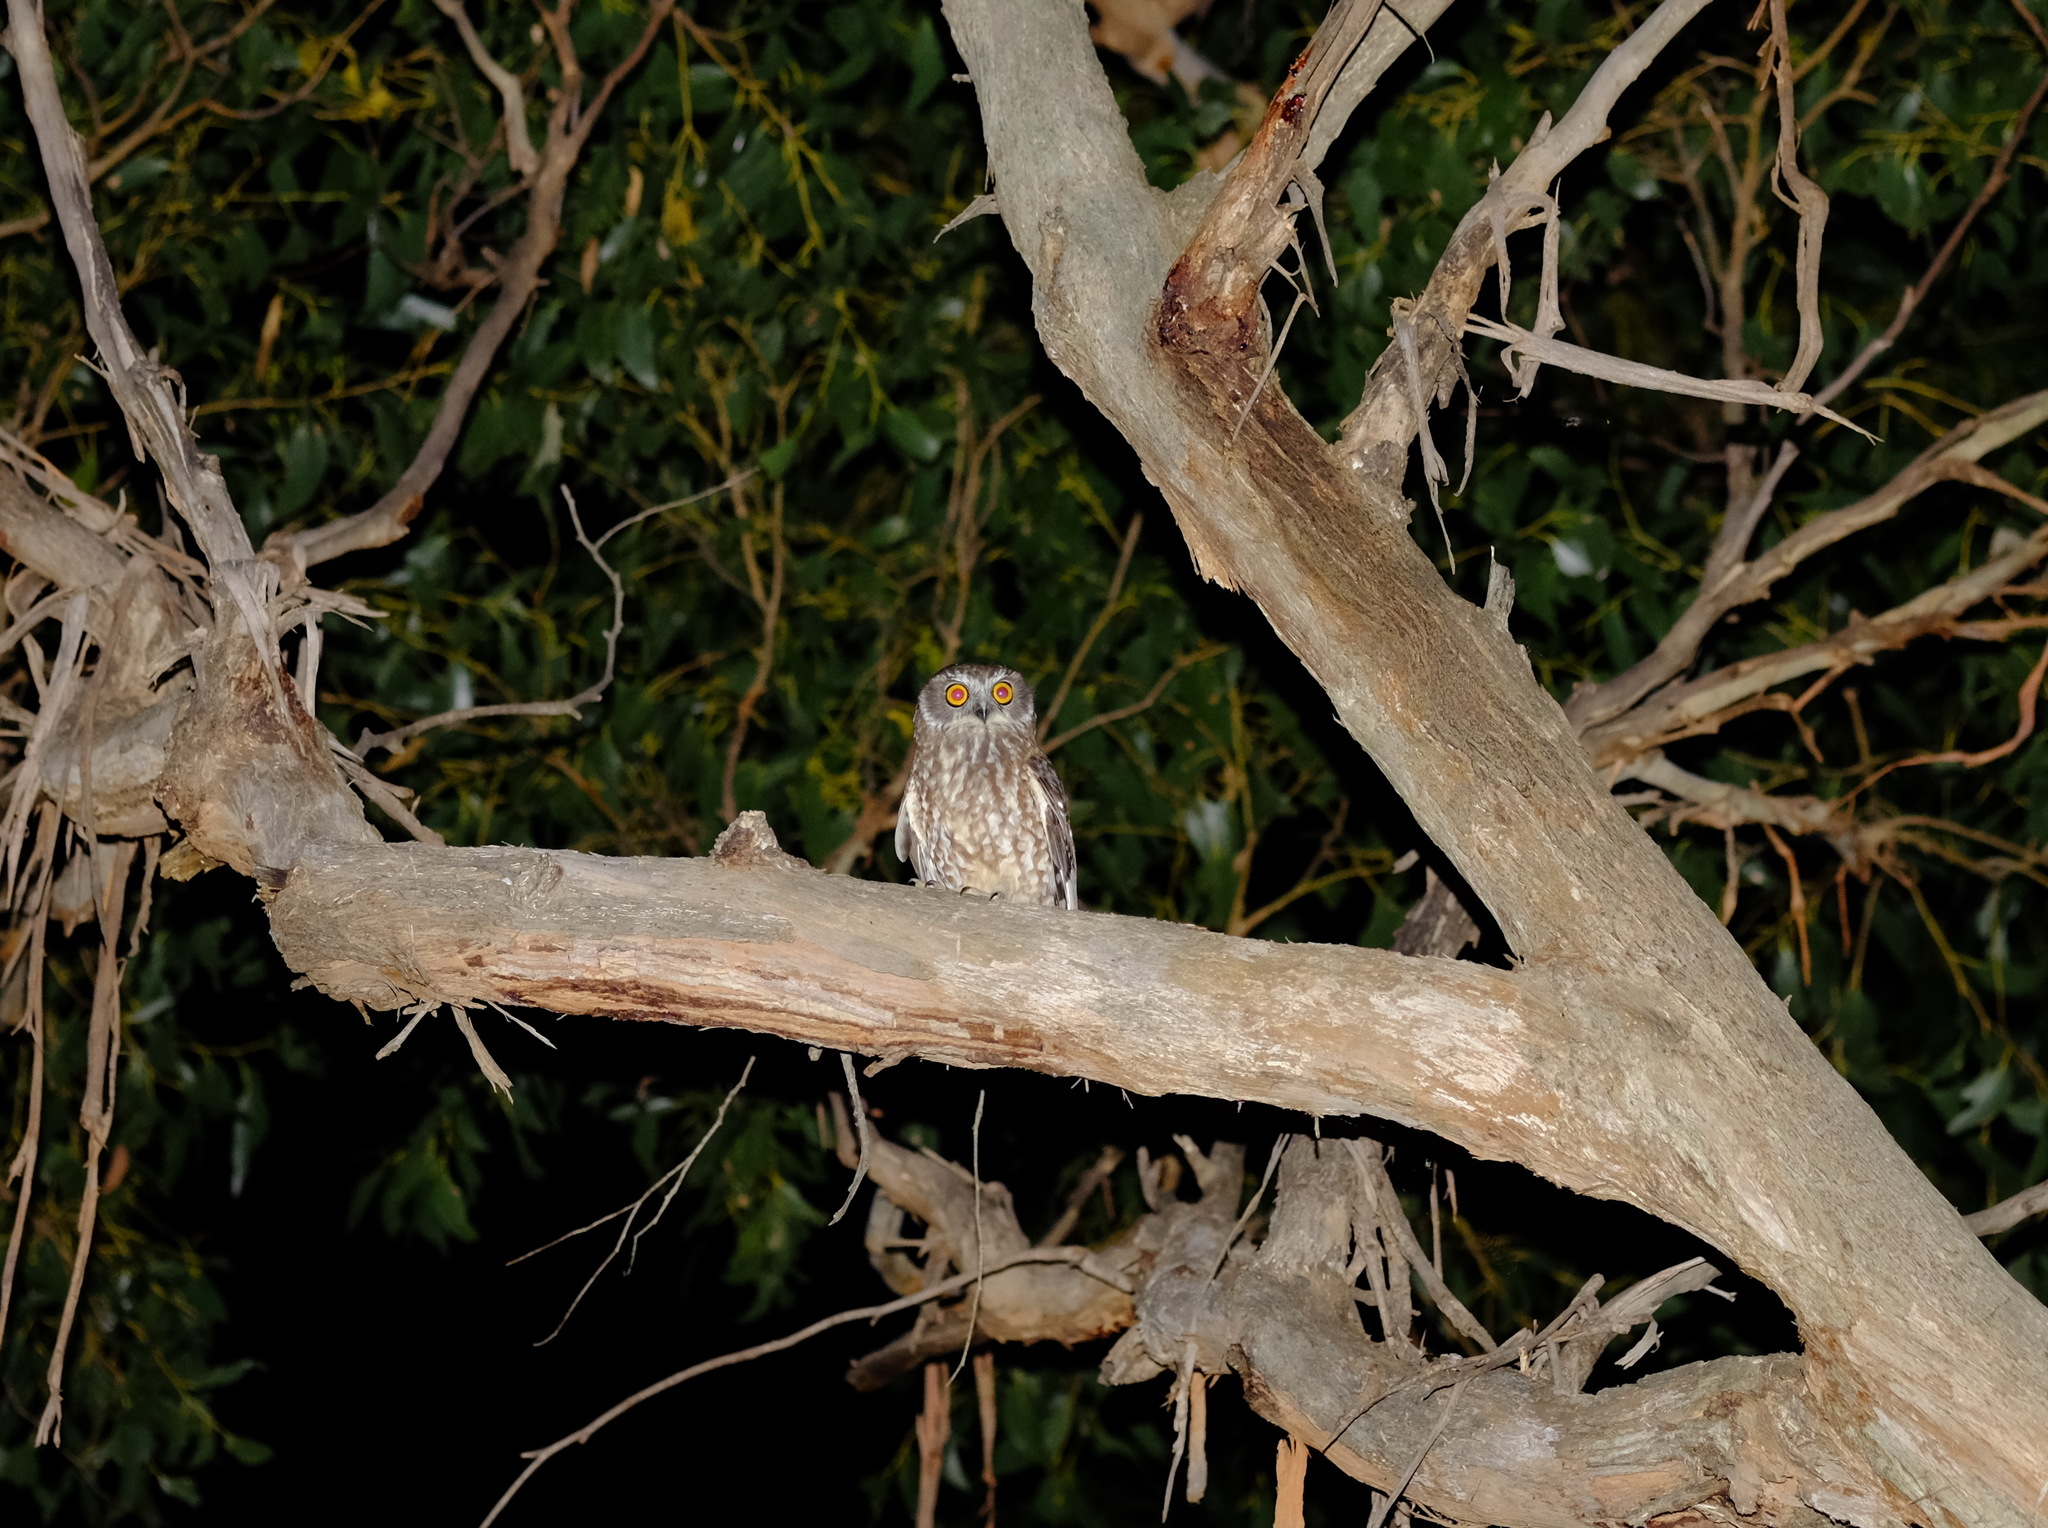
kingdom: Animalia
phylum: Chordata
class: Aves
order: Strigiformes
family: Strigidae
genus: Ninox
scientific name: Ninox boobook
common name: Southern boobook
